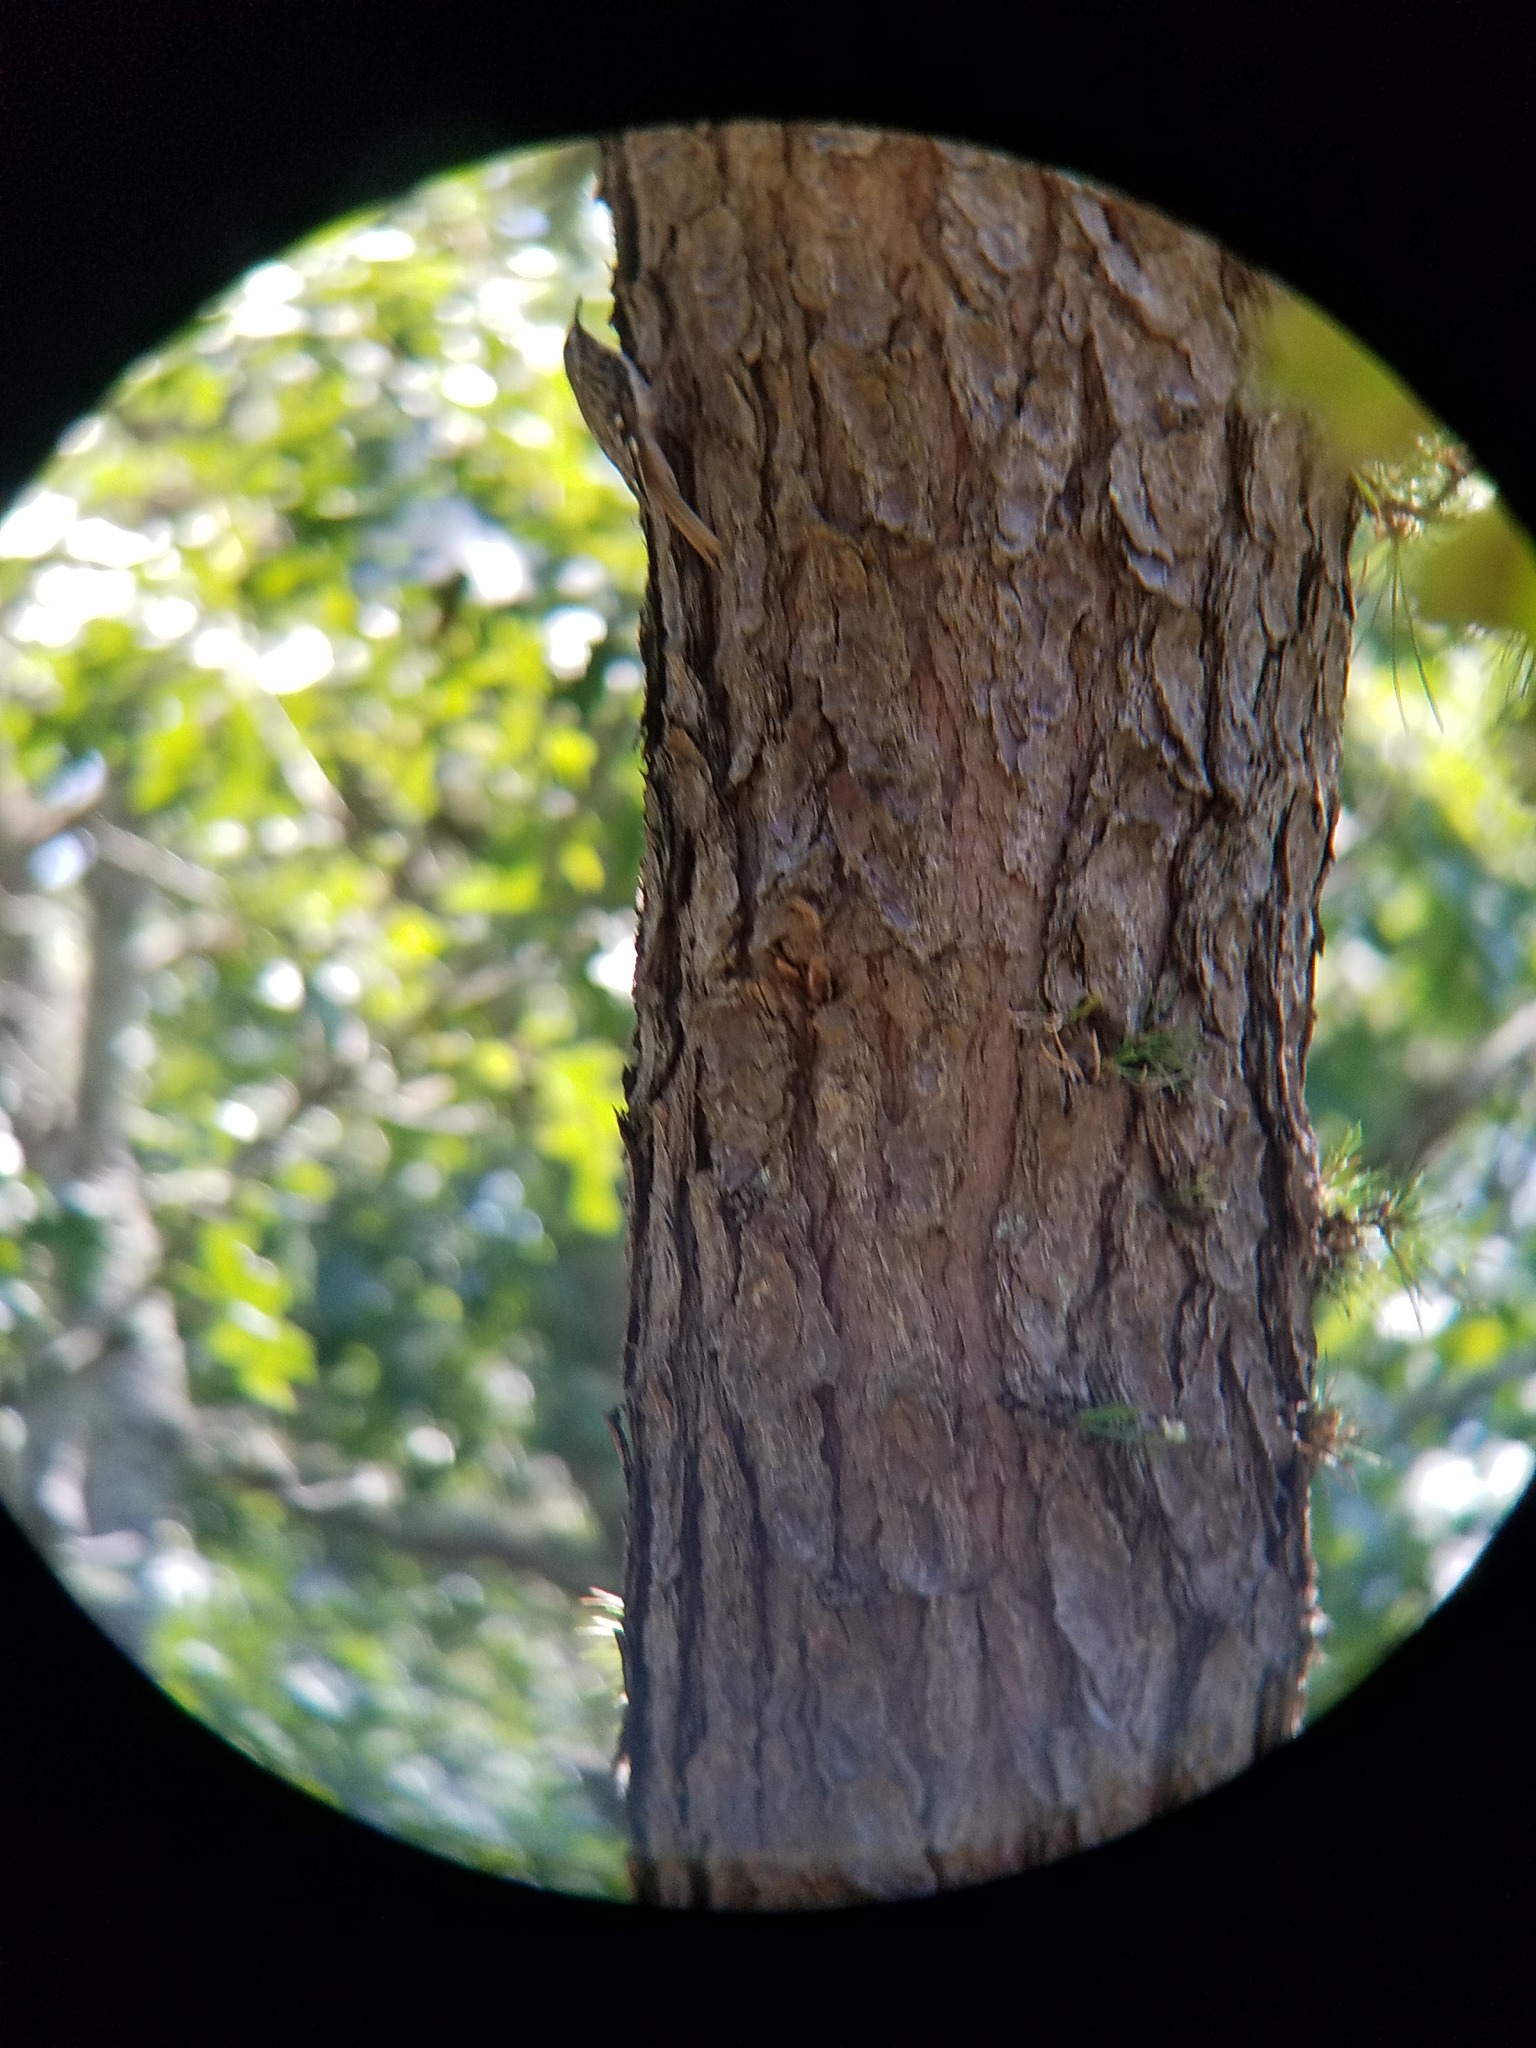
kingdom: Animalia
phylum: Chordata
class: Aves
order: Passeriformes
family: Certhiidae
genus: Certhia
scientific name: Certhia americana
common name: Brown creeper
